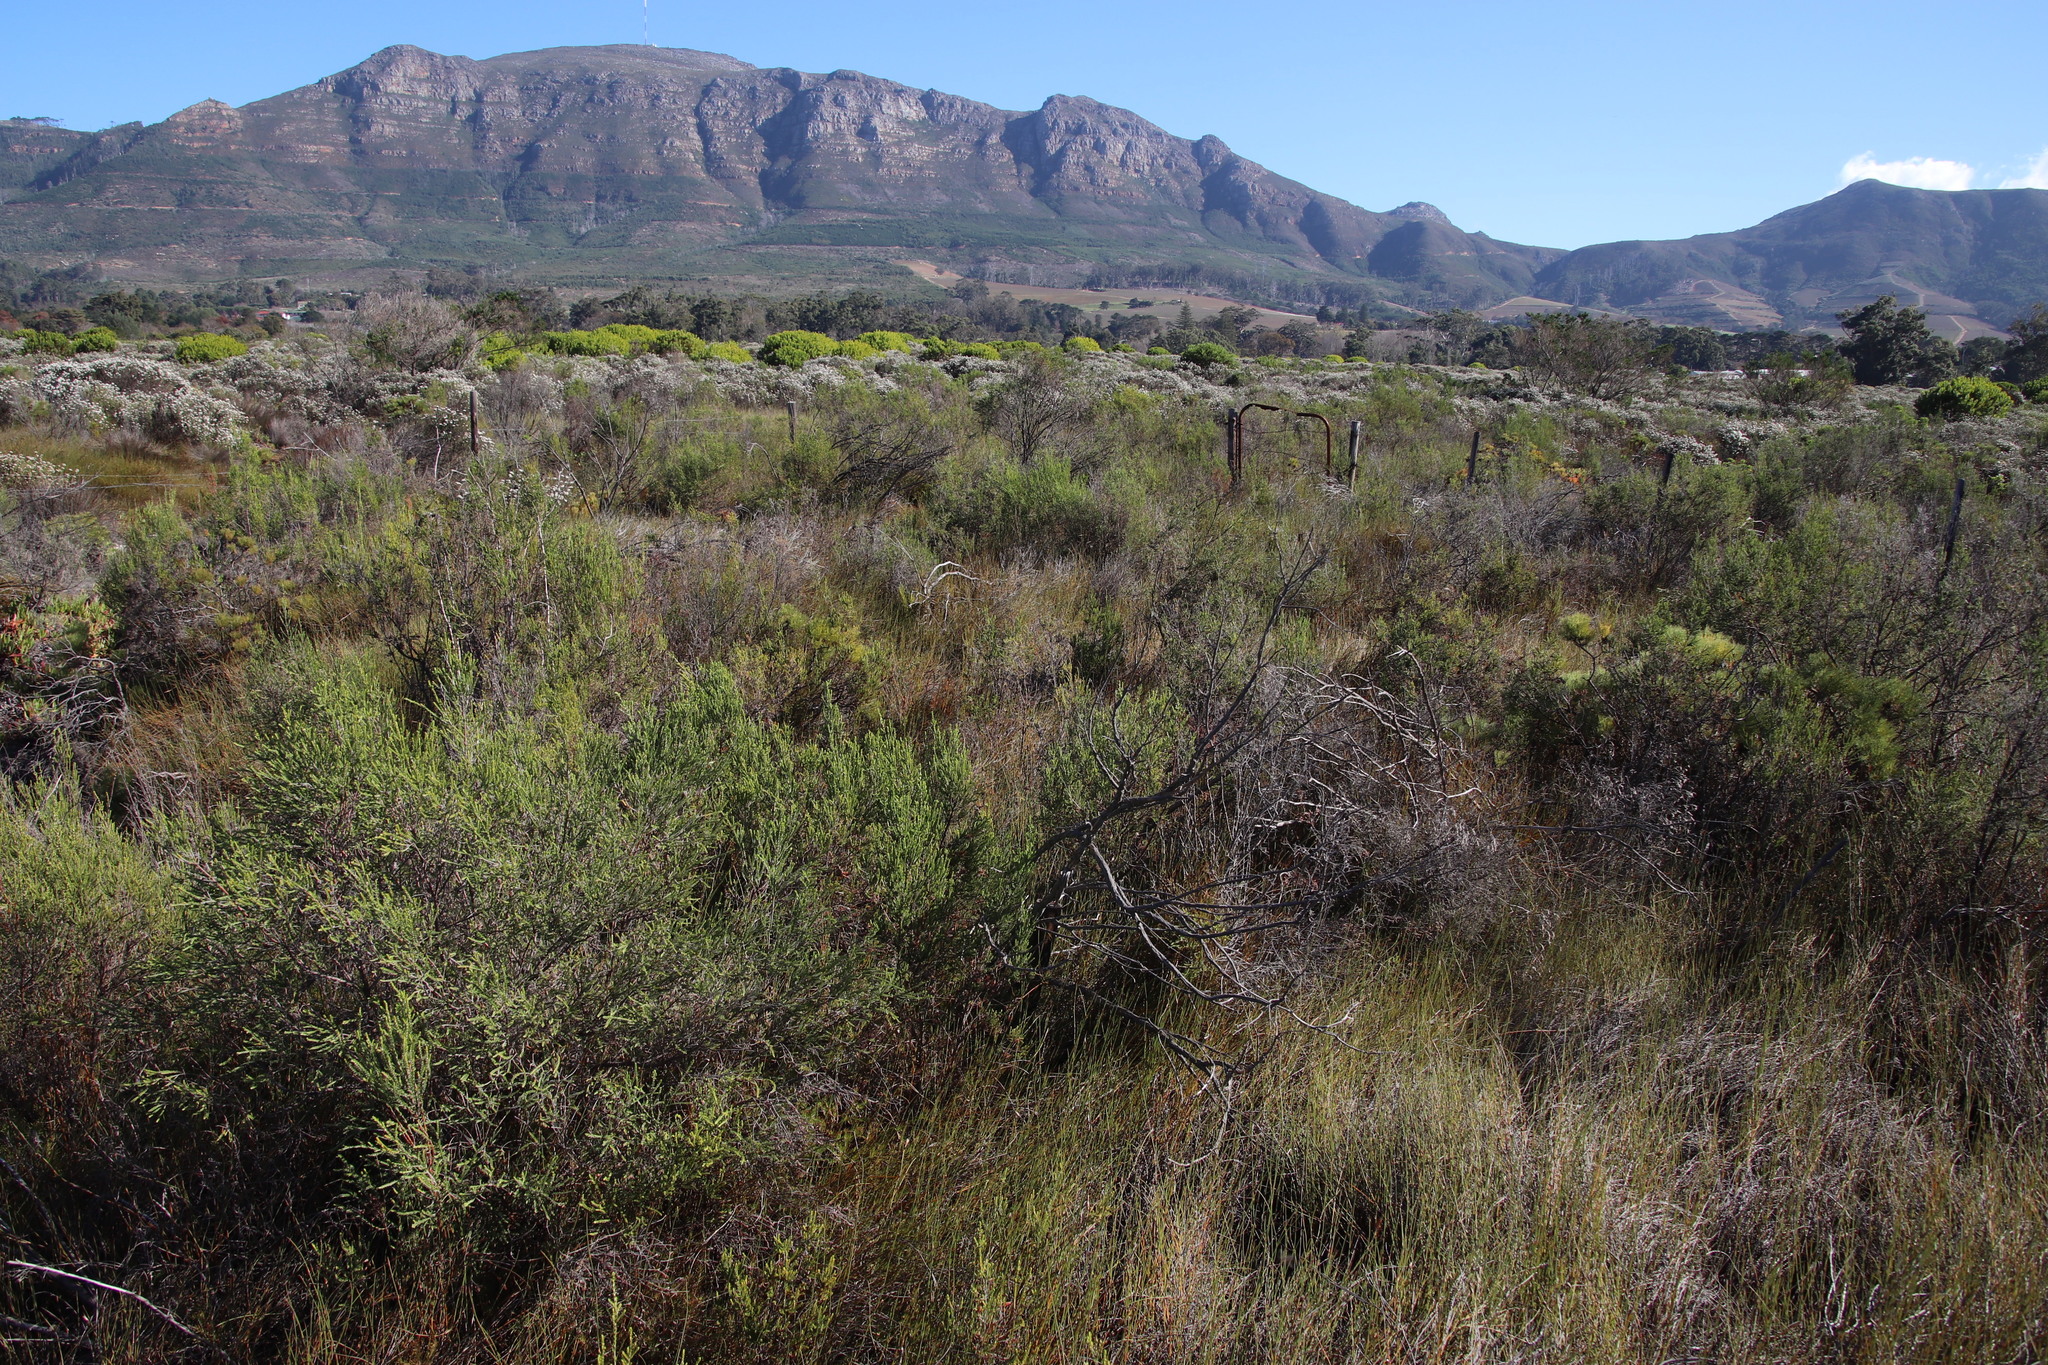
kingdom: Plantae
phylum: Tracheophyta
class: Magnoliopsida
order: Malvales
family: Thymelaeaceae
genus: Passerina
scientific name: Passerina corymbosa
